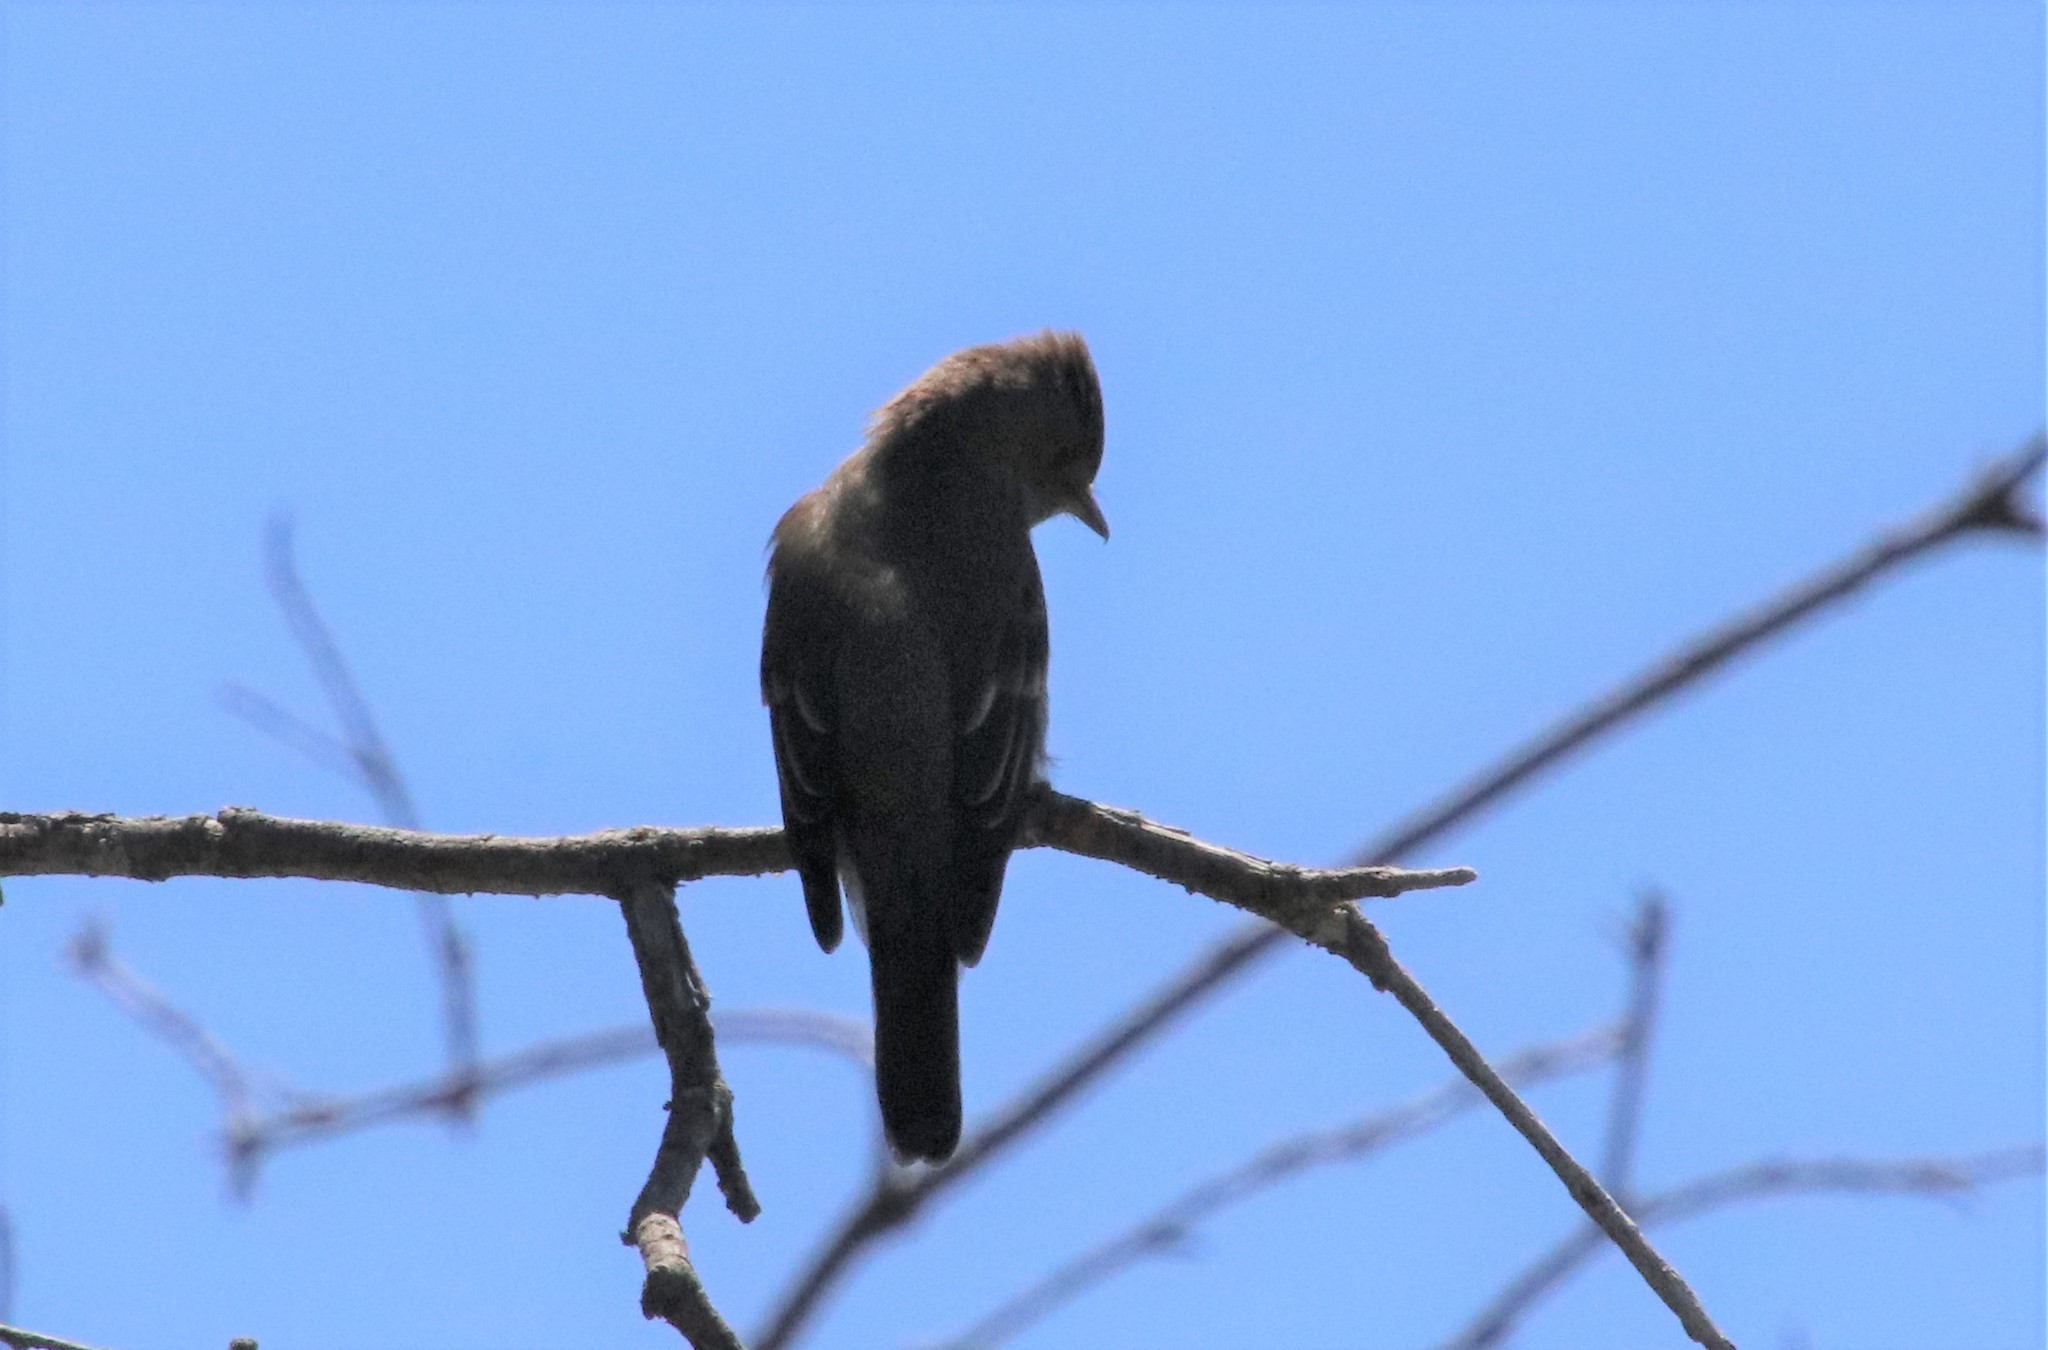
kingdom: Animalia
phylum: Chordata
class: Aves
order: Passeriformes
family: Tyrannidae
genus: Contopus
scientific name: Contopus sordidulus
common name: Western wood-pewee
